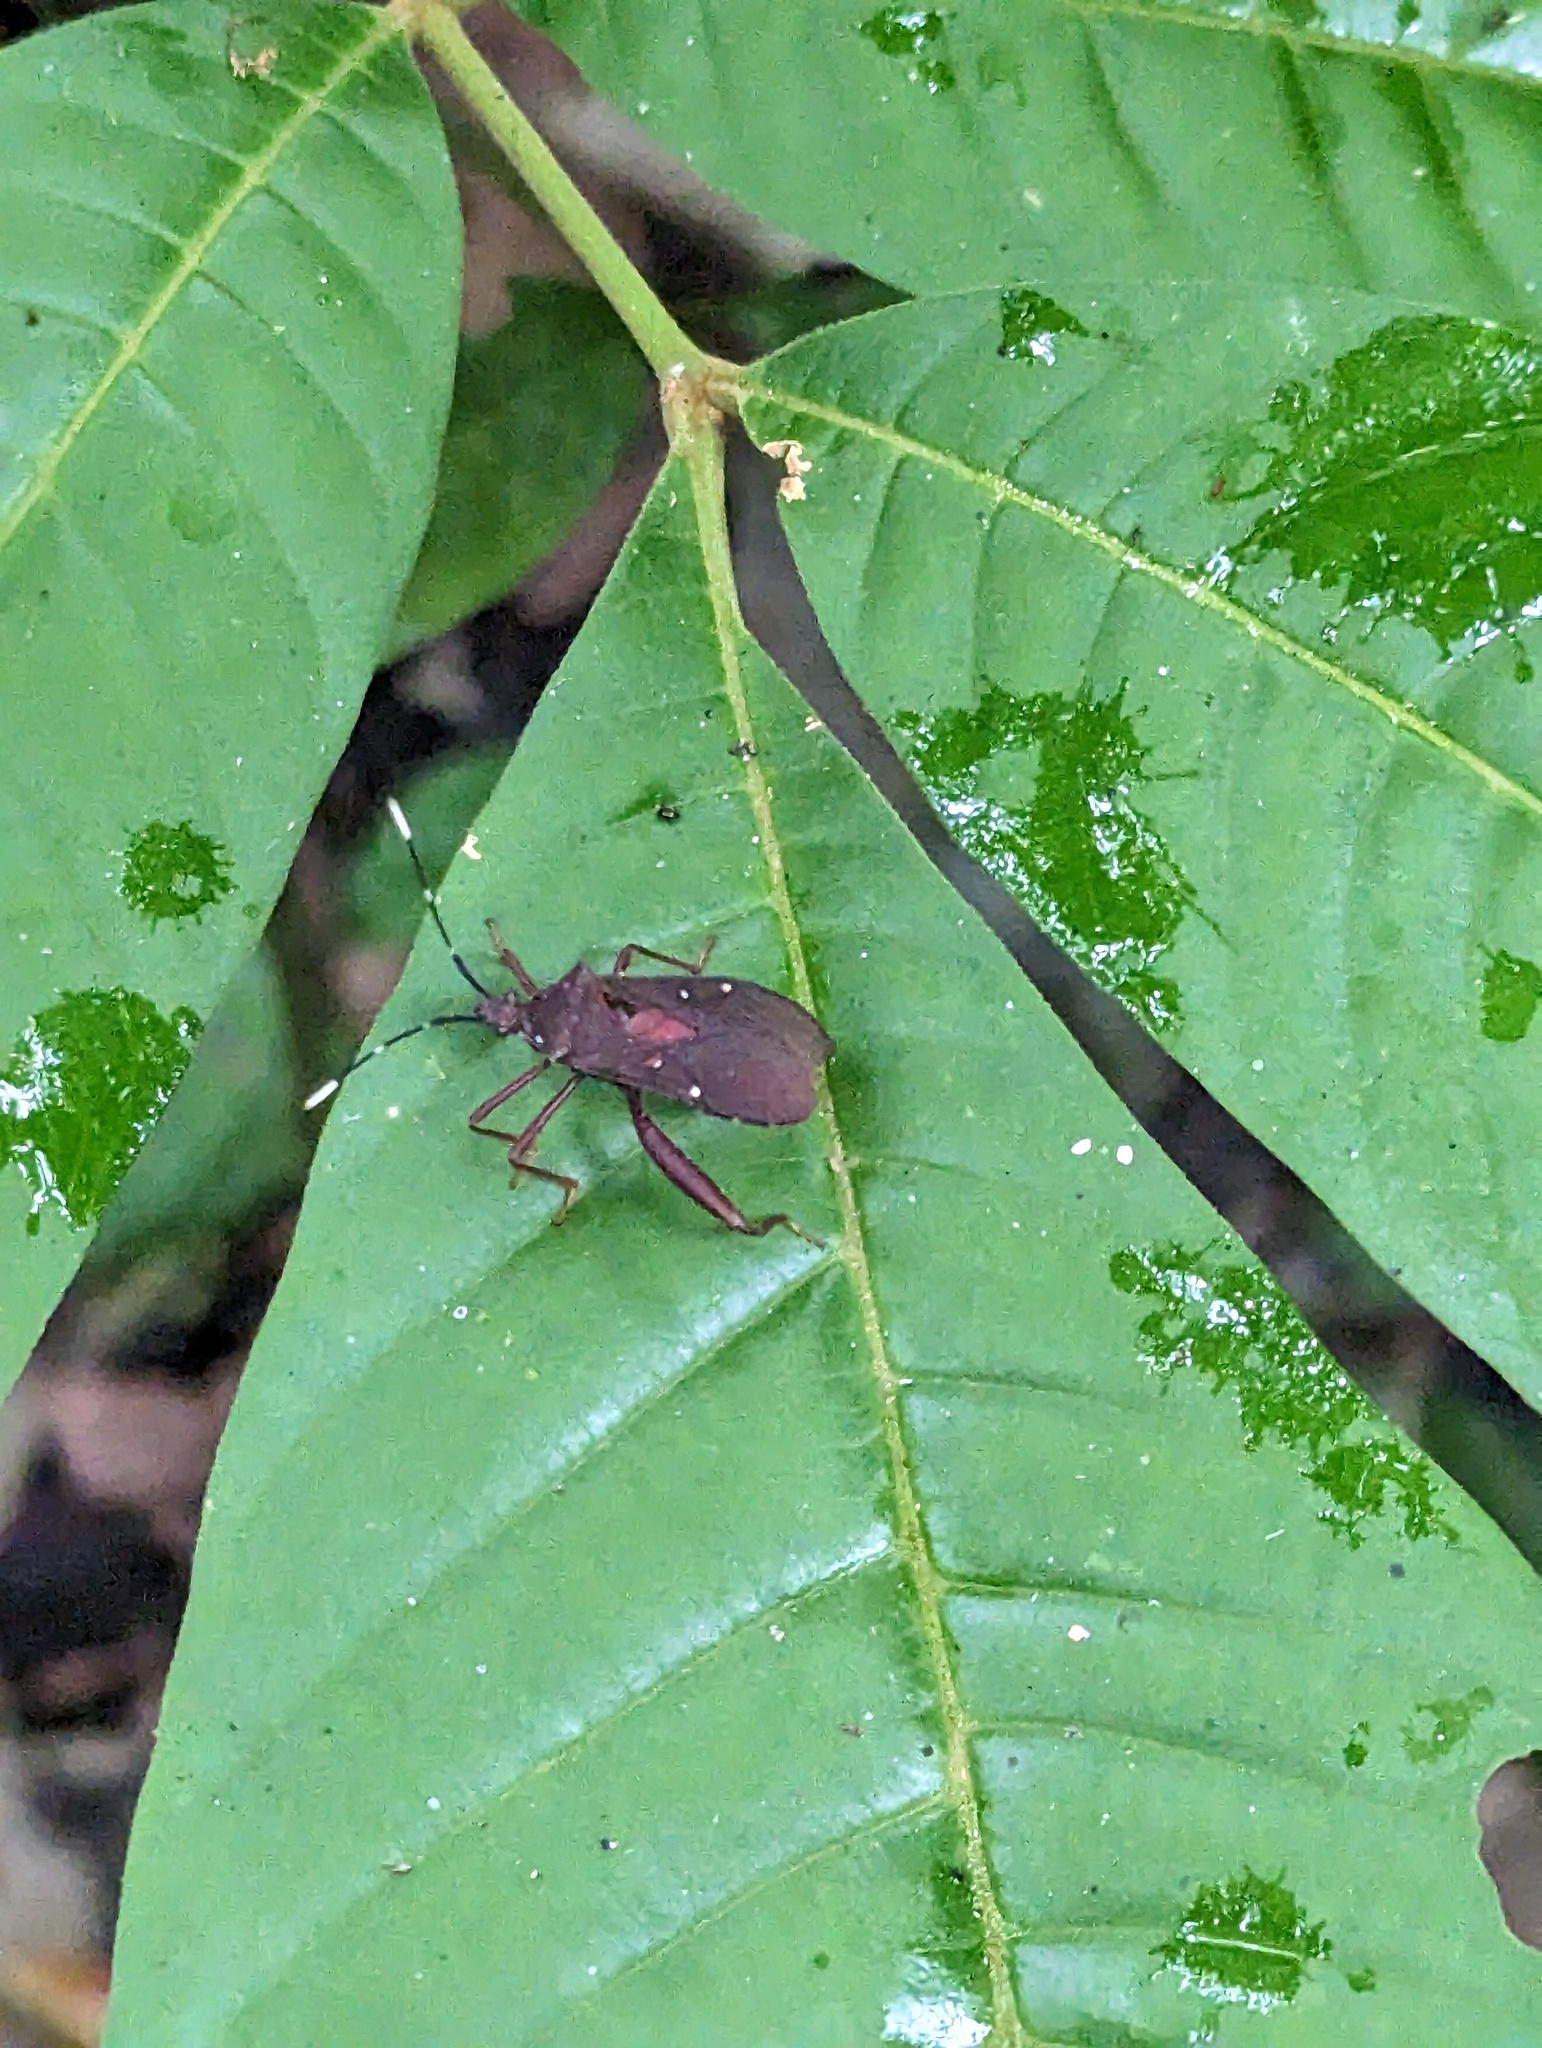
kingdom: Animalia
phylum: Arthropoda
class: Insecta
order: Hemiptera
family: Coreidae
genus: Leptoscelis
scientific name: Leptoscelis quadrisignatus
